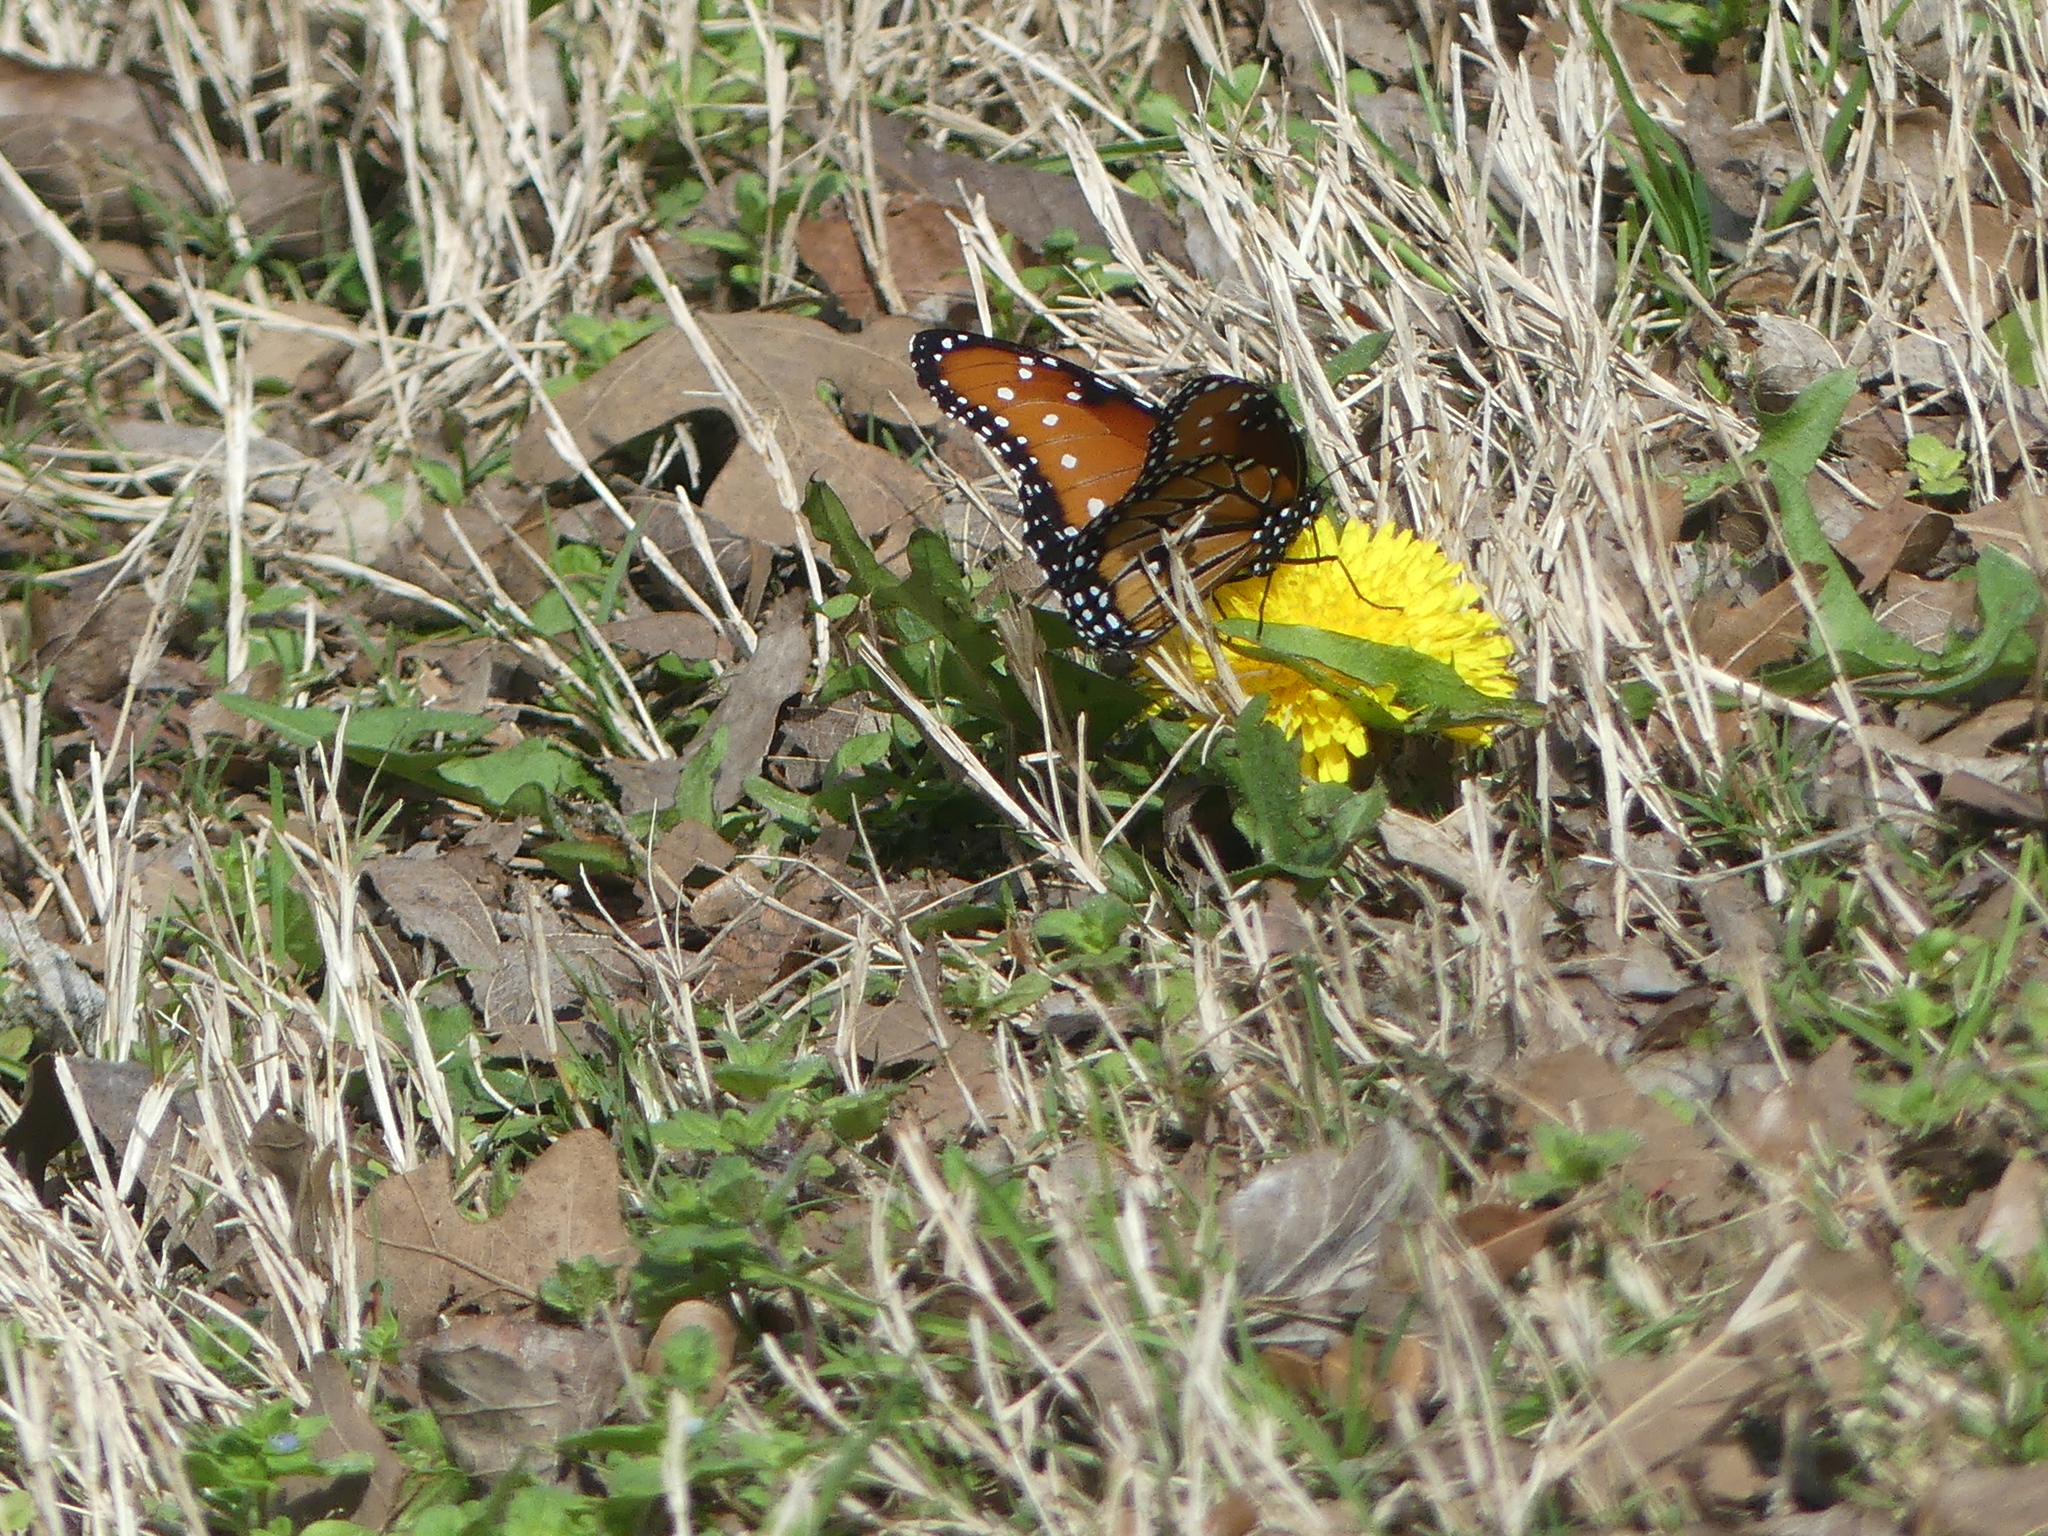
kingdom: Animalia
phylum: Arthropoda
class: Insecta
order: Lepidoptera
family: Nymphalidae
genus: Danaus
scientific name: Danaus gilippus
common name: Queen
